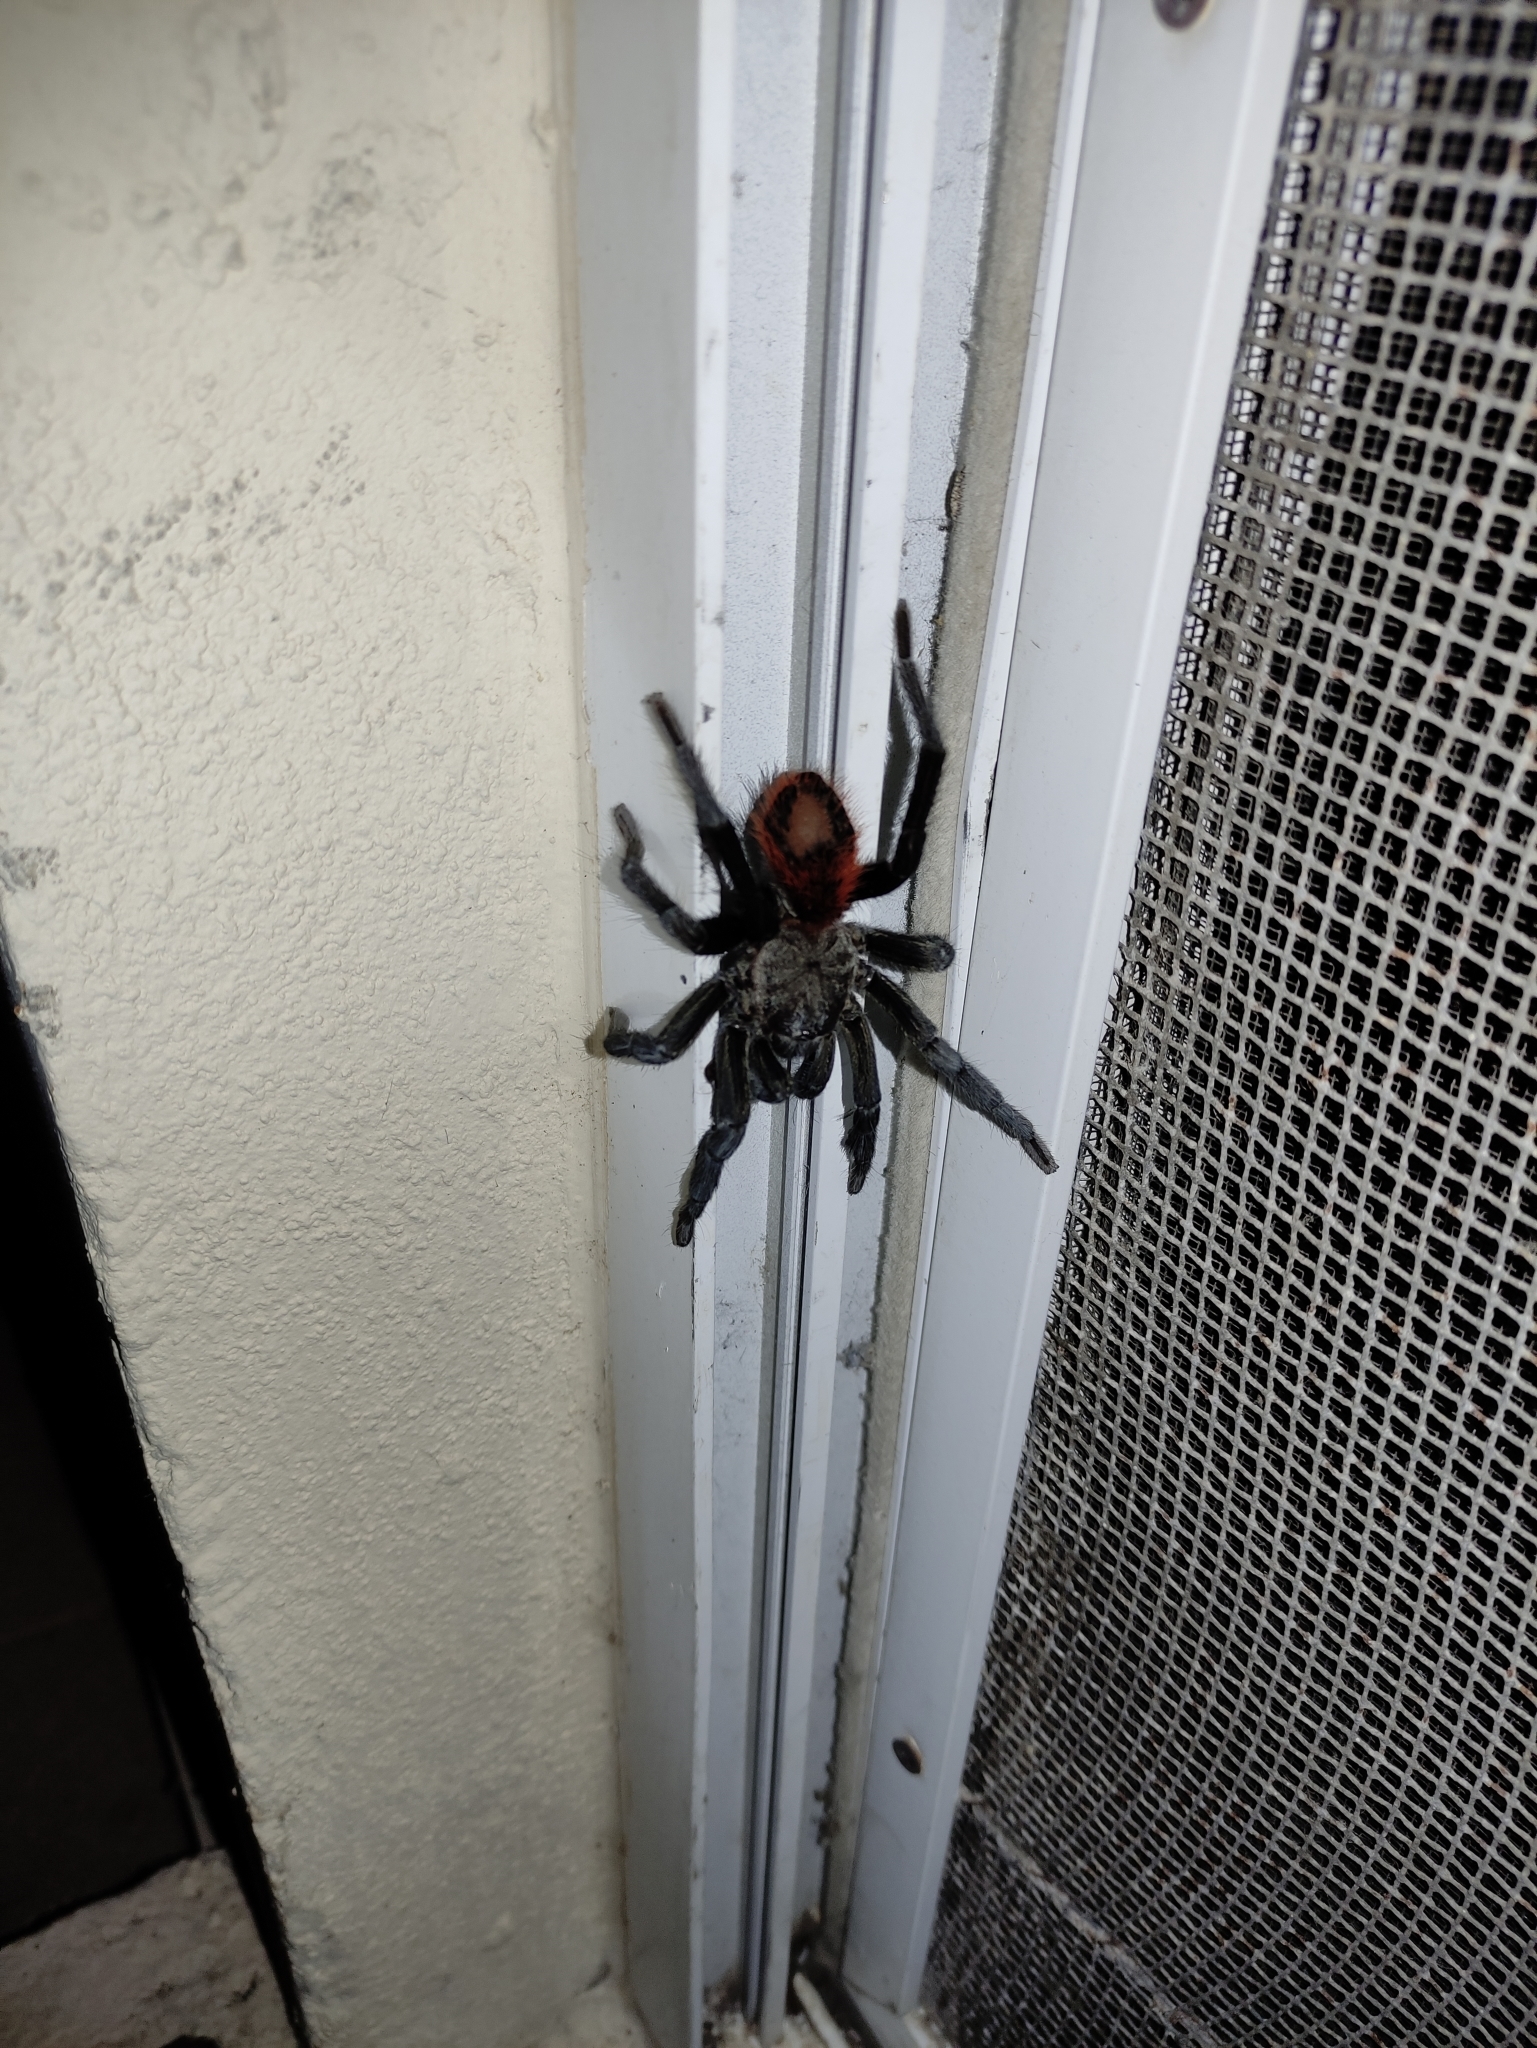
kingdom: Animalia
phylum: Arthropoda
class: Arachnida
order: Araneae
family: Theraphosidae
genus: Tliltocatl
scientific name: Tliltocatl epicureanus
